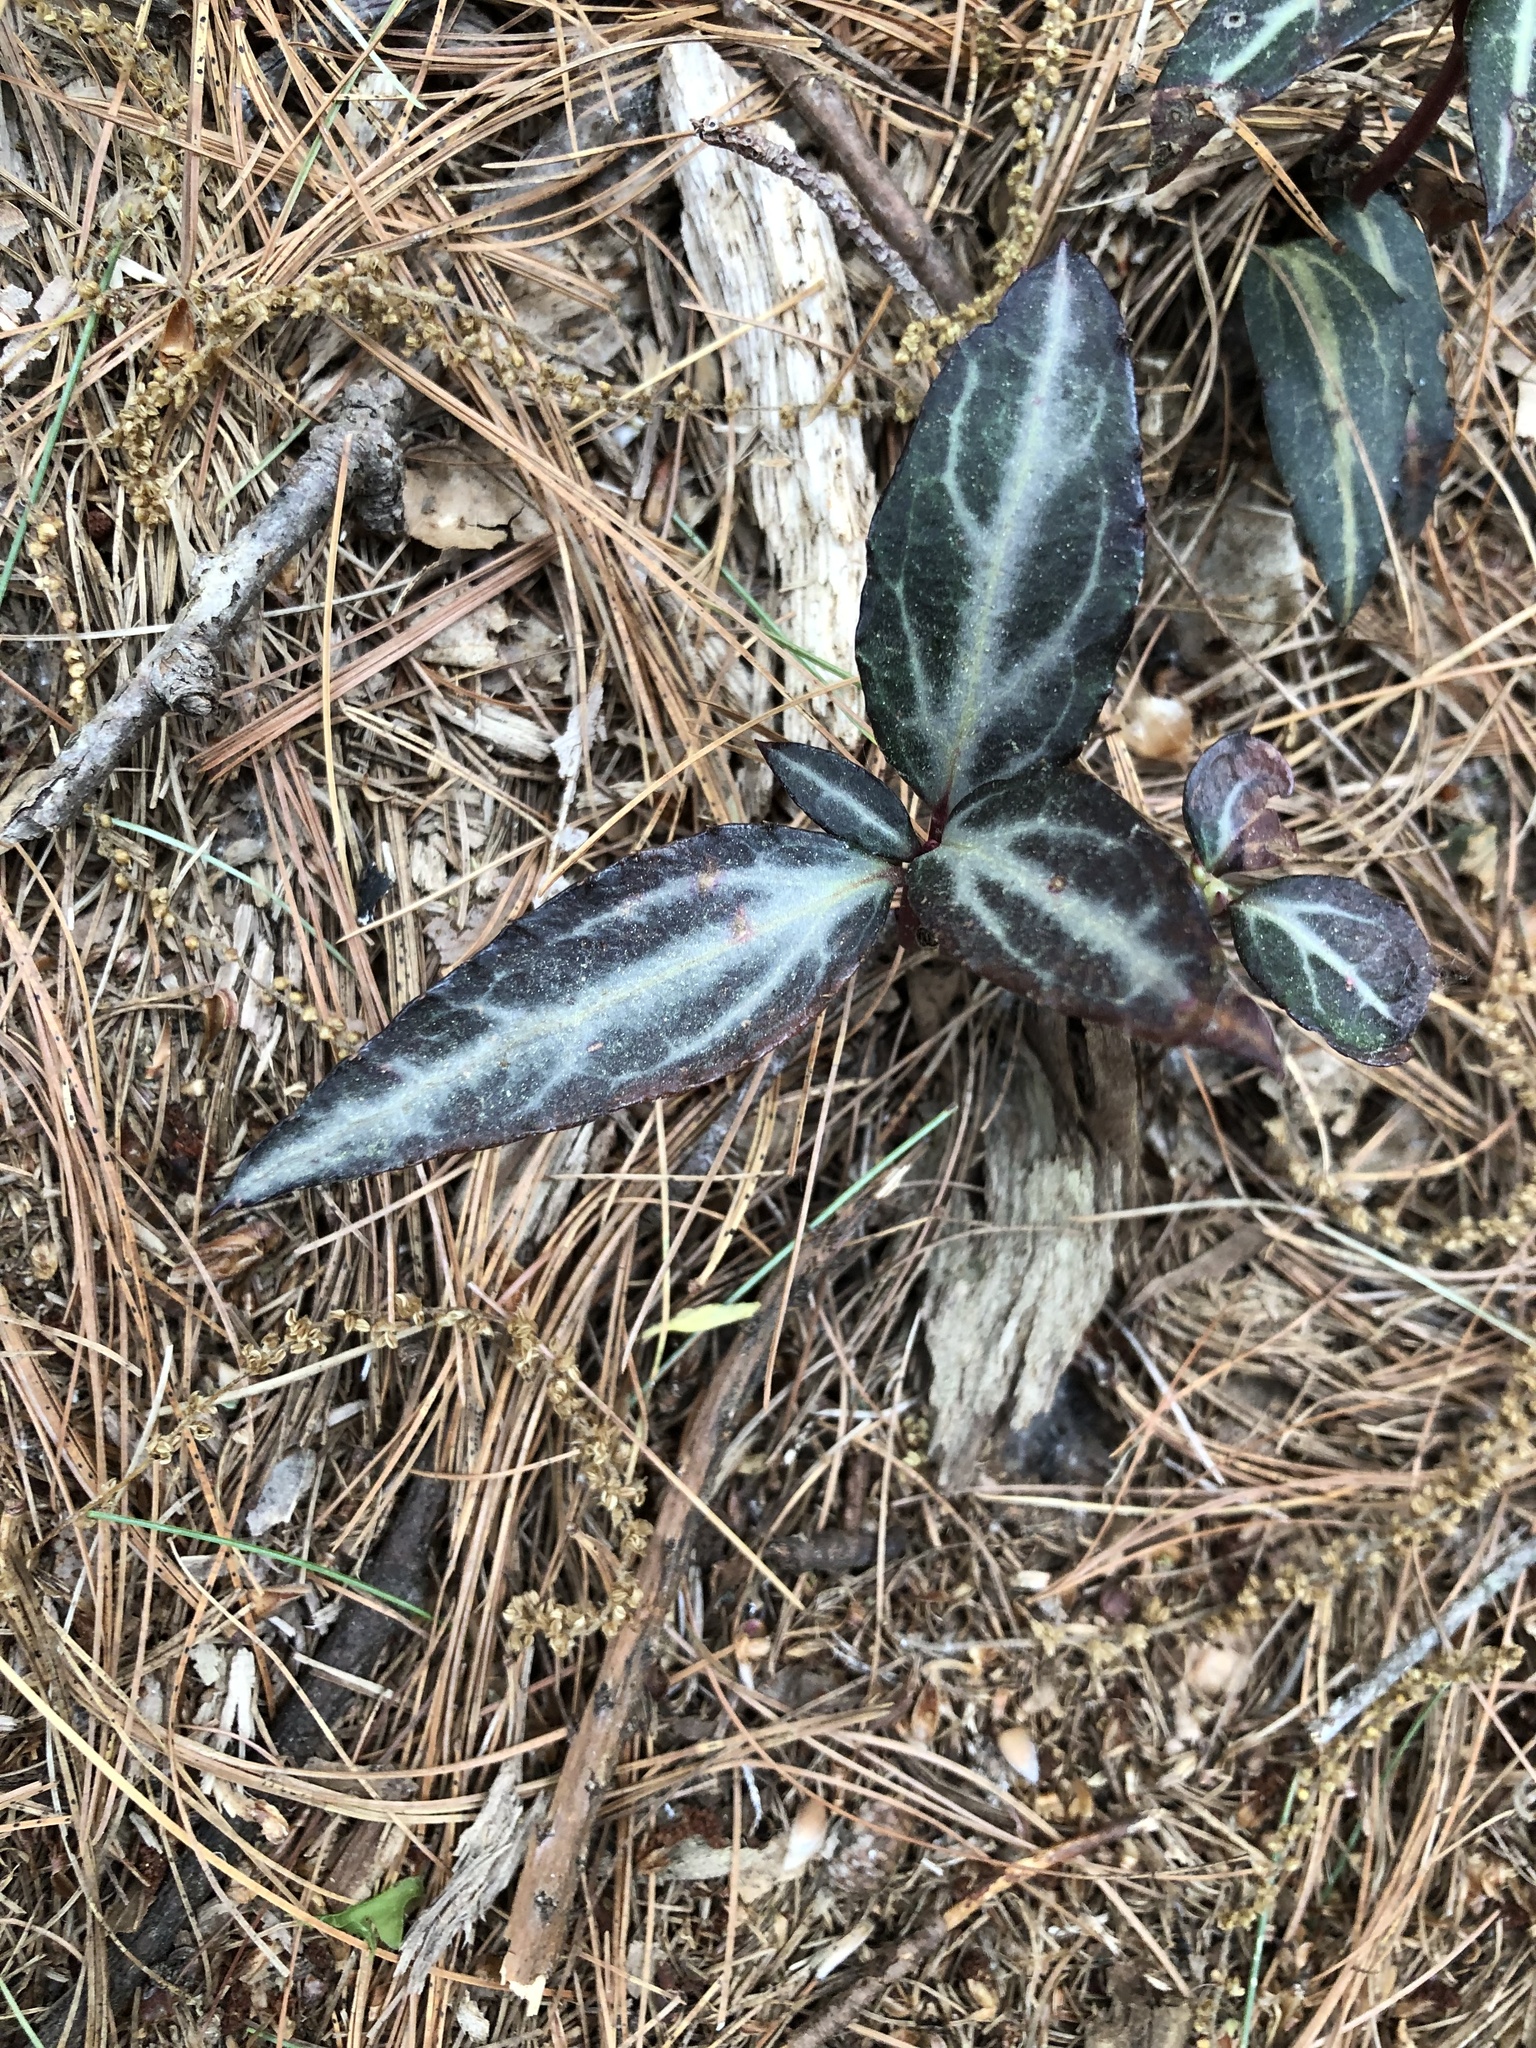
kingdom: Plantae
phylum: Tracheophyta
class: Magnoliopsida
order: Ericales
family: Ericaceae
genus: Chimaphila
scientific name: Chimaphila maculata
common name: Spotted pipsissewa
